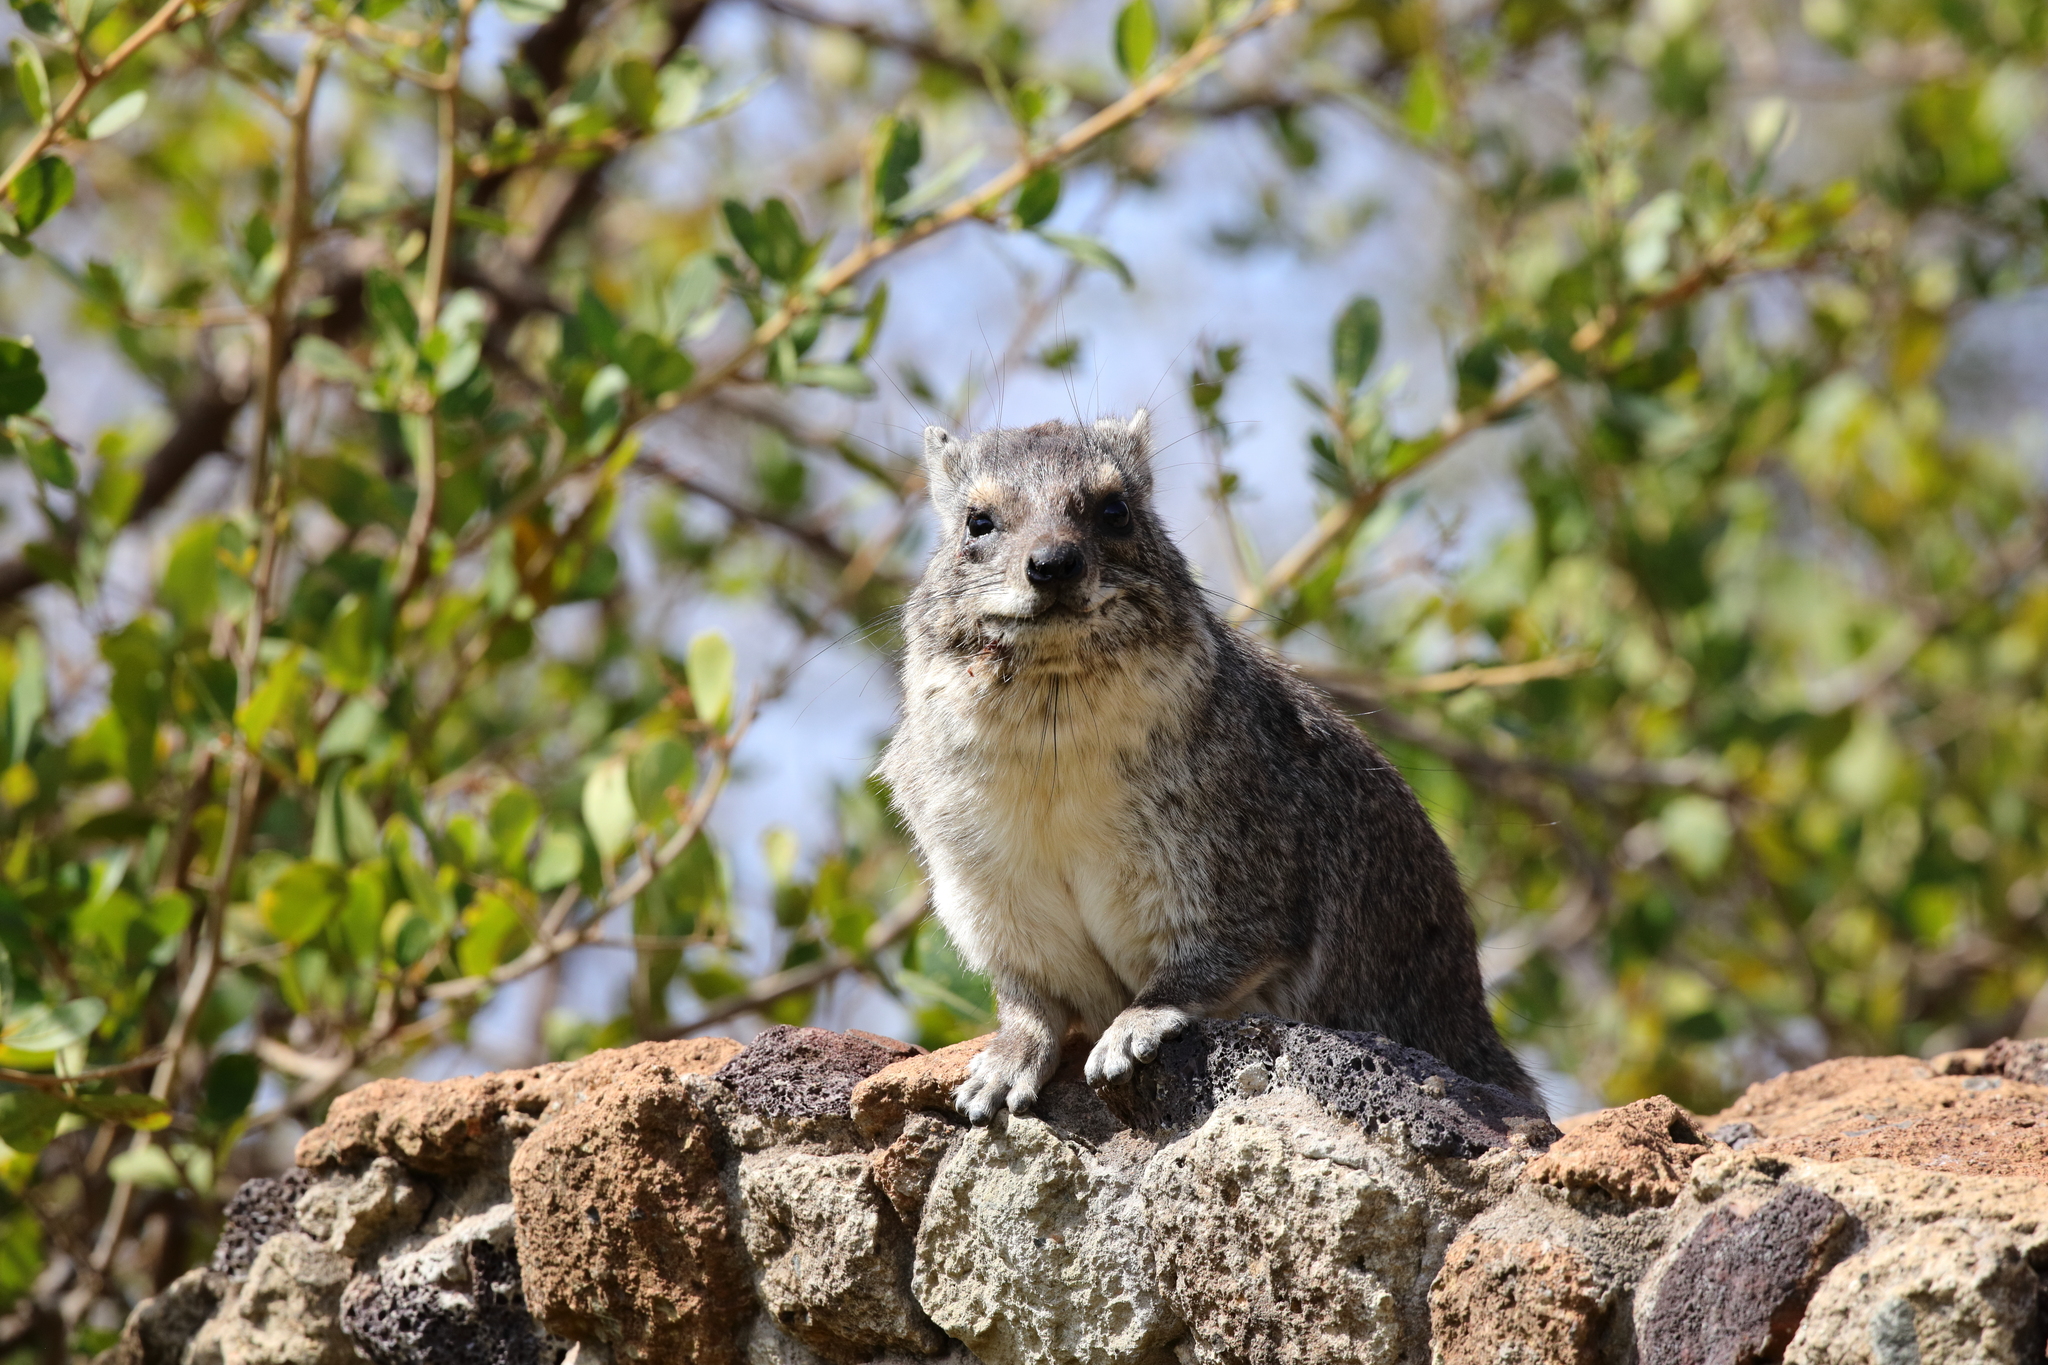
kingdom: Animalia
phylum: Chordata
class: Mammalia
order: Hyracoidea
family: Procaviidae
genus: Heterohyrax
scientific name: Heterohyrax brucei
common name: Bush hyrax
